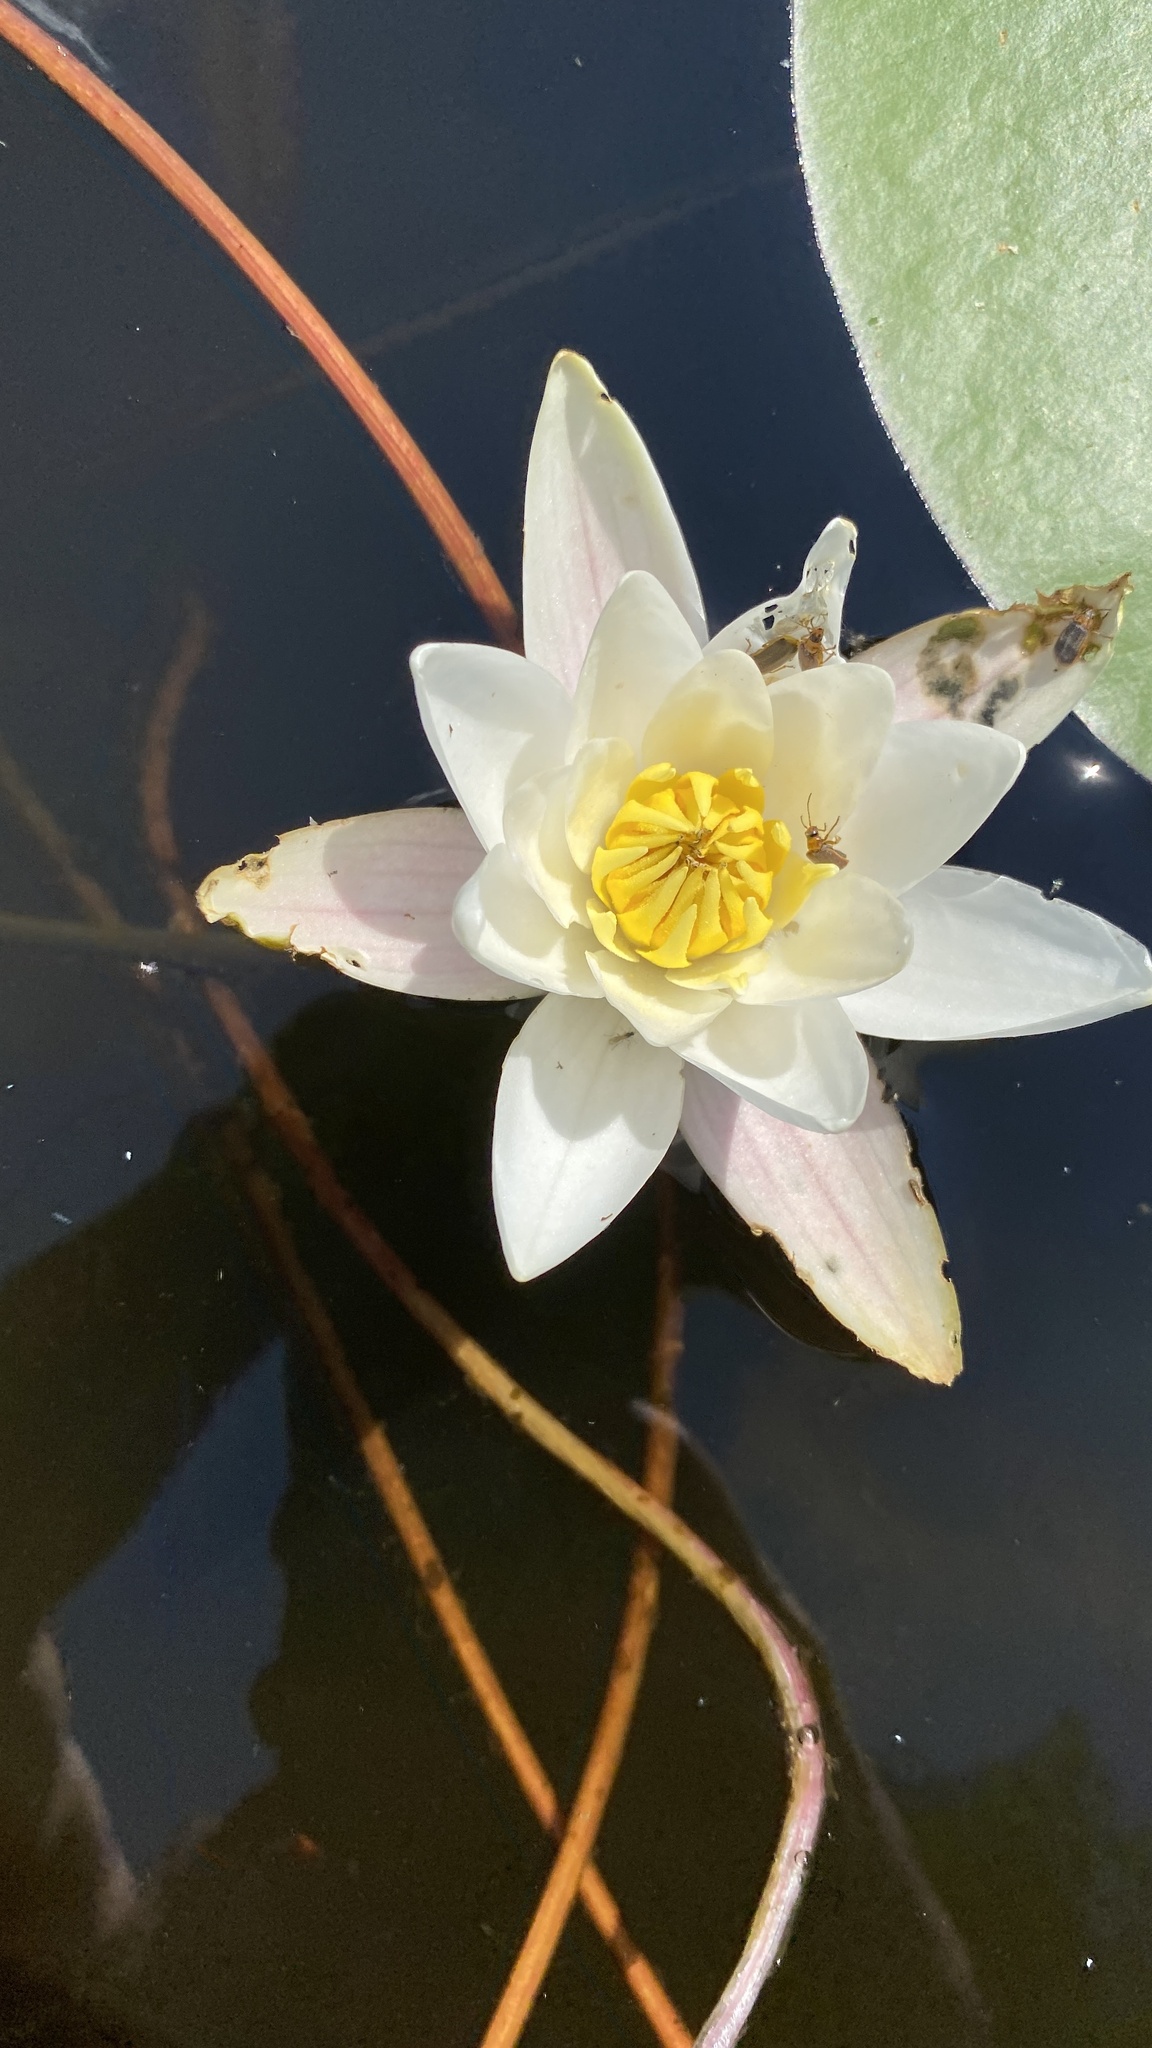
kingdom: Plantae
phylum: Tracheophyta
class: Magnoliopsida
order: Nymphaeales
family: Nymphaeaceae
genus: Nymphaea
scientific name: Nymphaea candida
